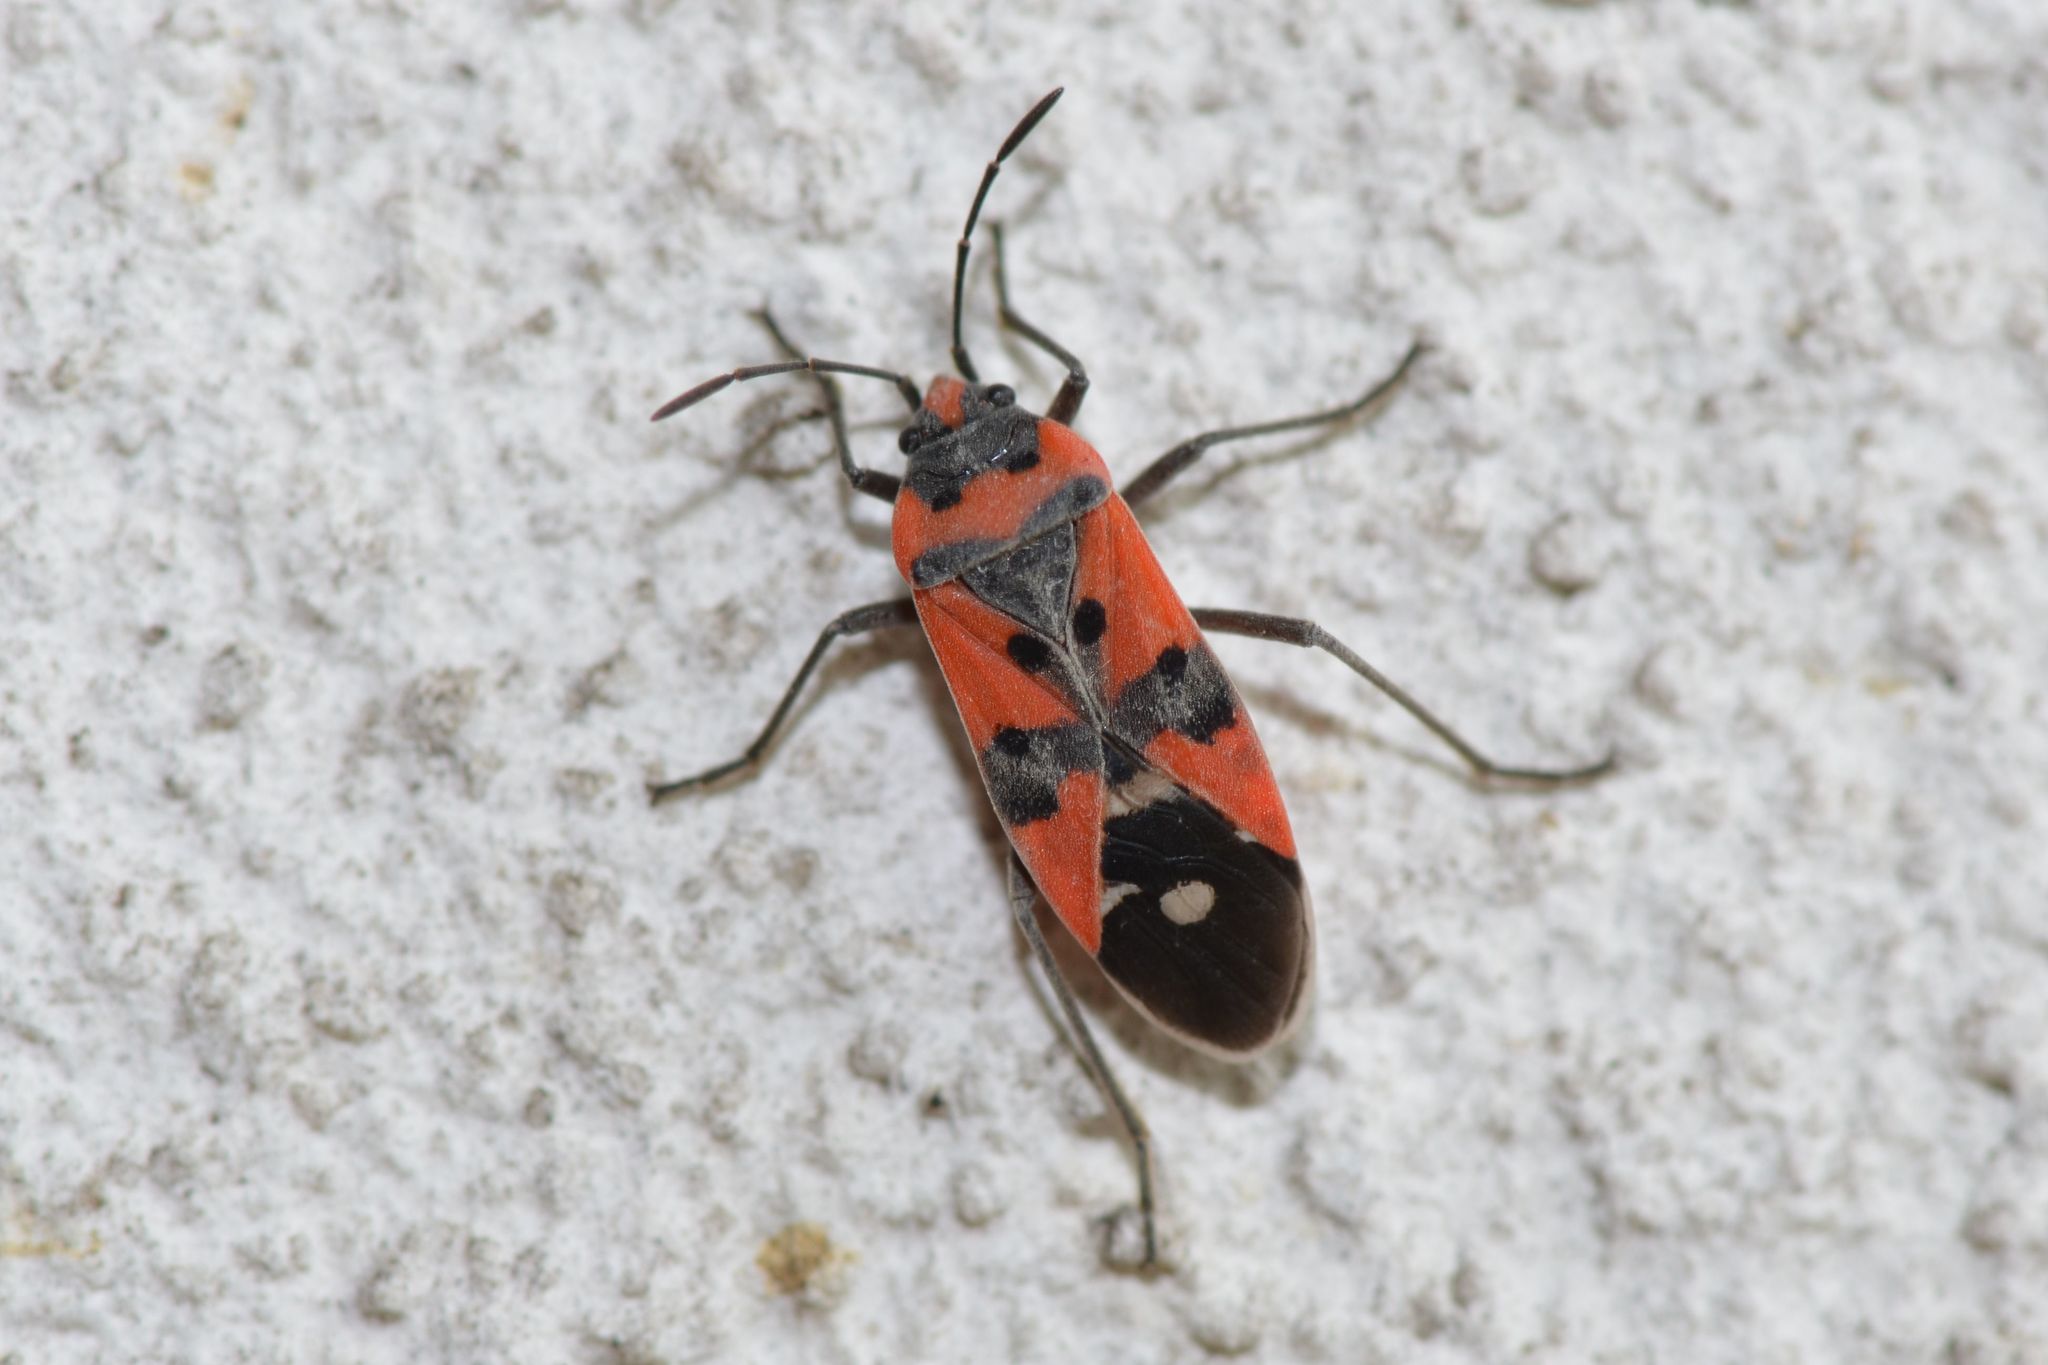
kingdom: Animalia
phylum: Arthropoda
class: Insecta
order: Hemiptera
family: Lygaeidae
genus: Lygaeus
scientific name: Lygaeus equestris
